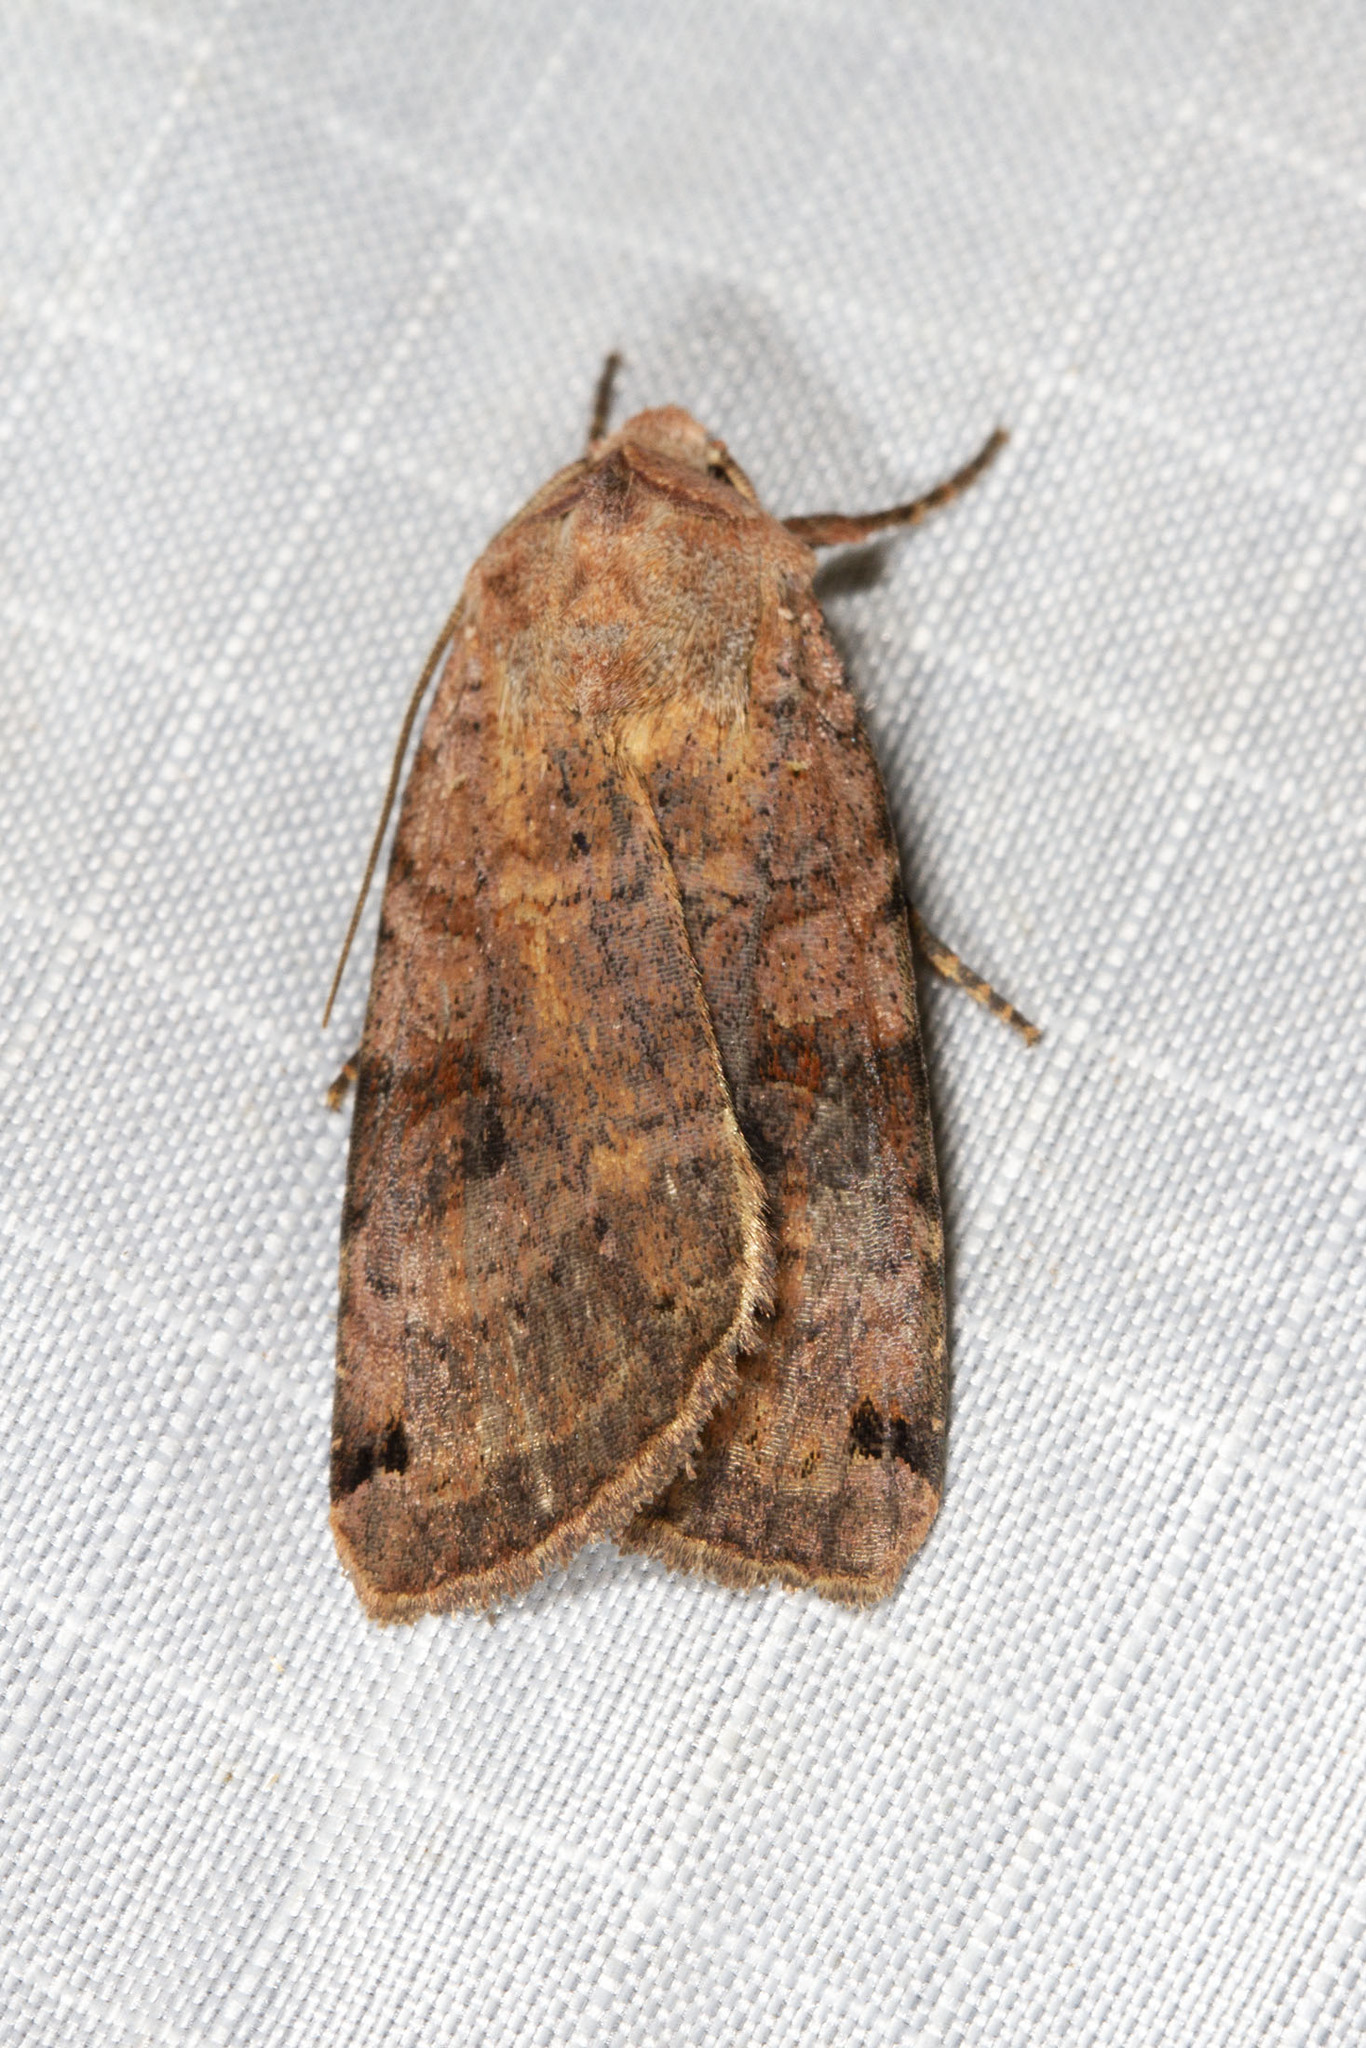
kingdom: Animalia
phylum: Arthropoda
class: Insecta
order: Lepidoptera
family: Noctuidae
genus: Xestia
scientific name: Xestia smithii
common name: Smith's dart
